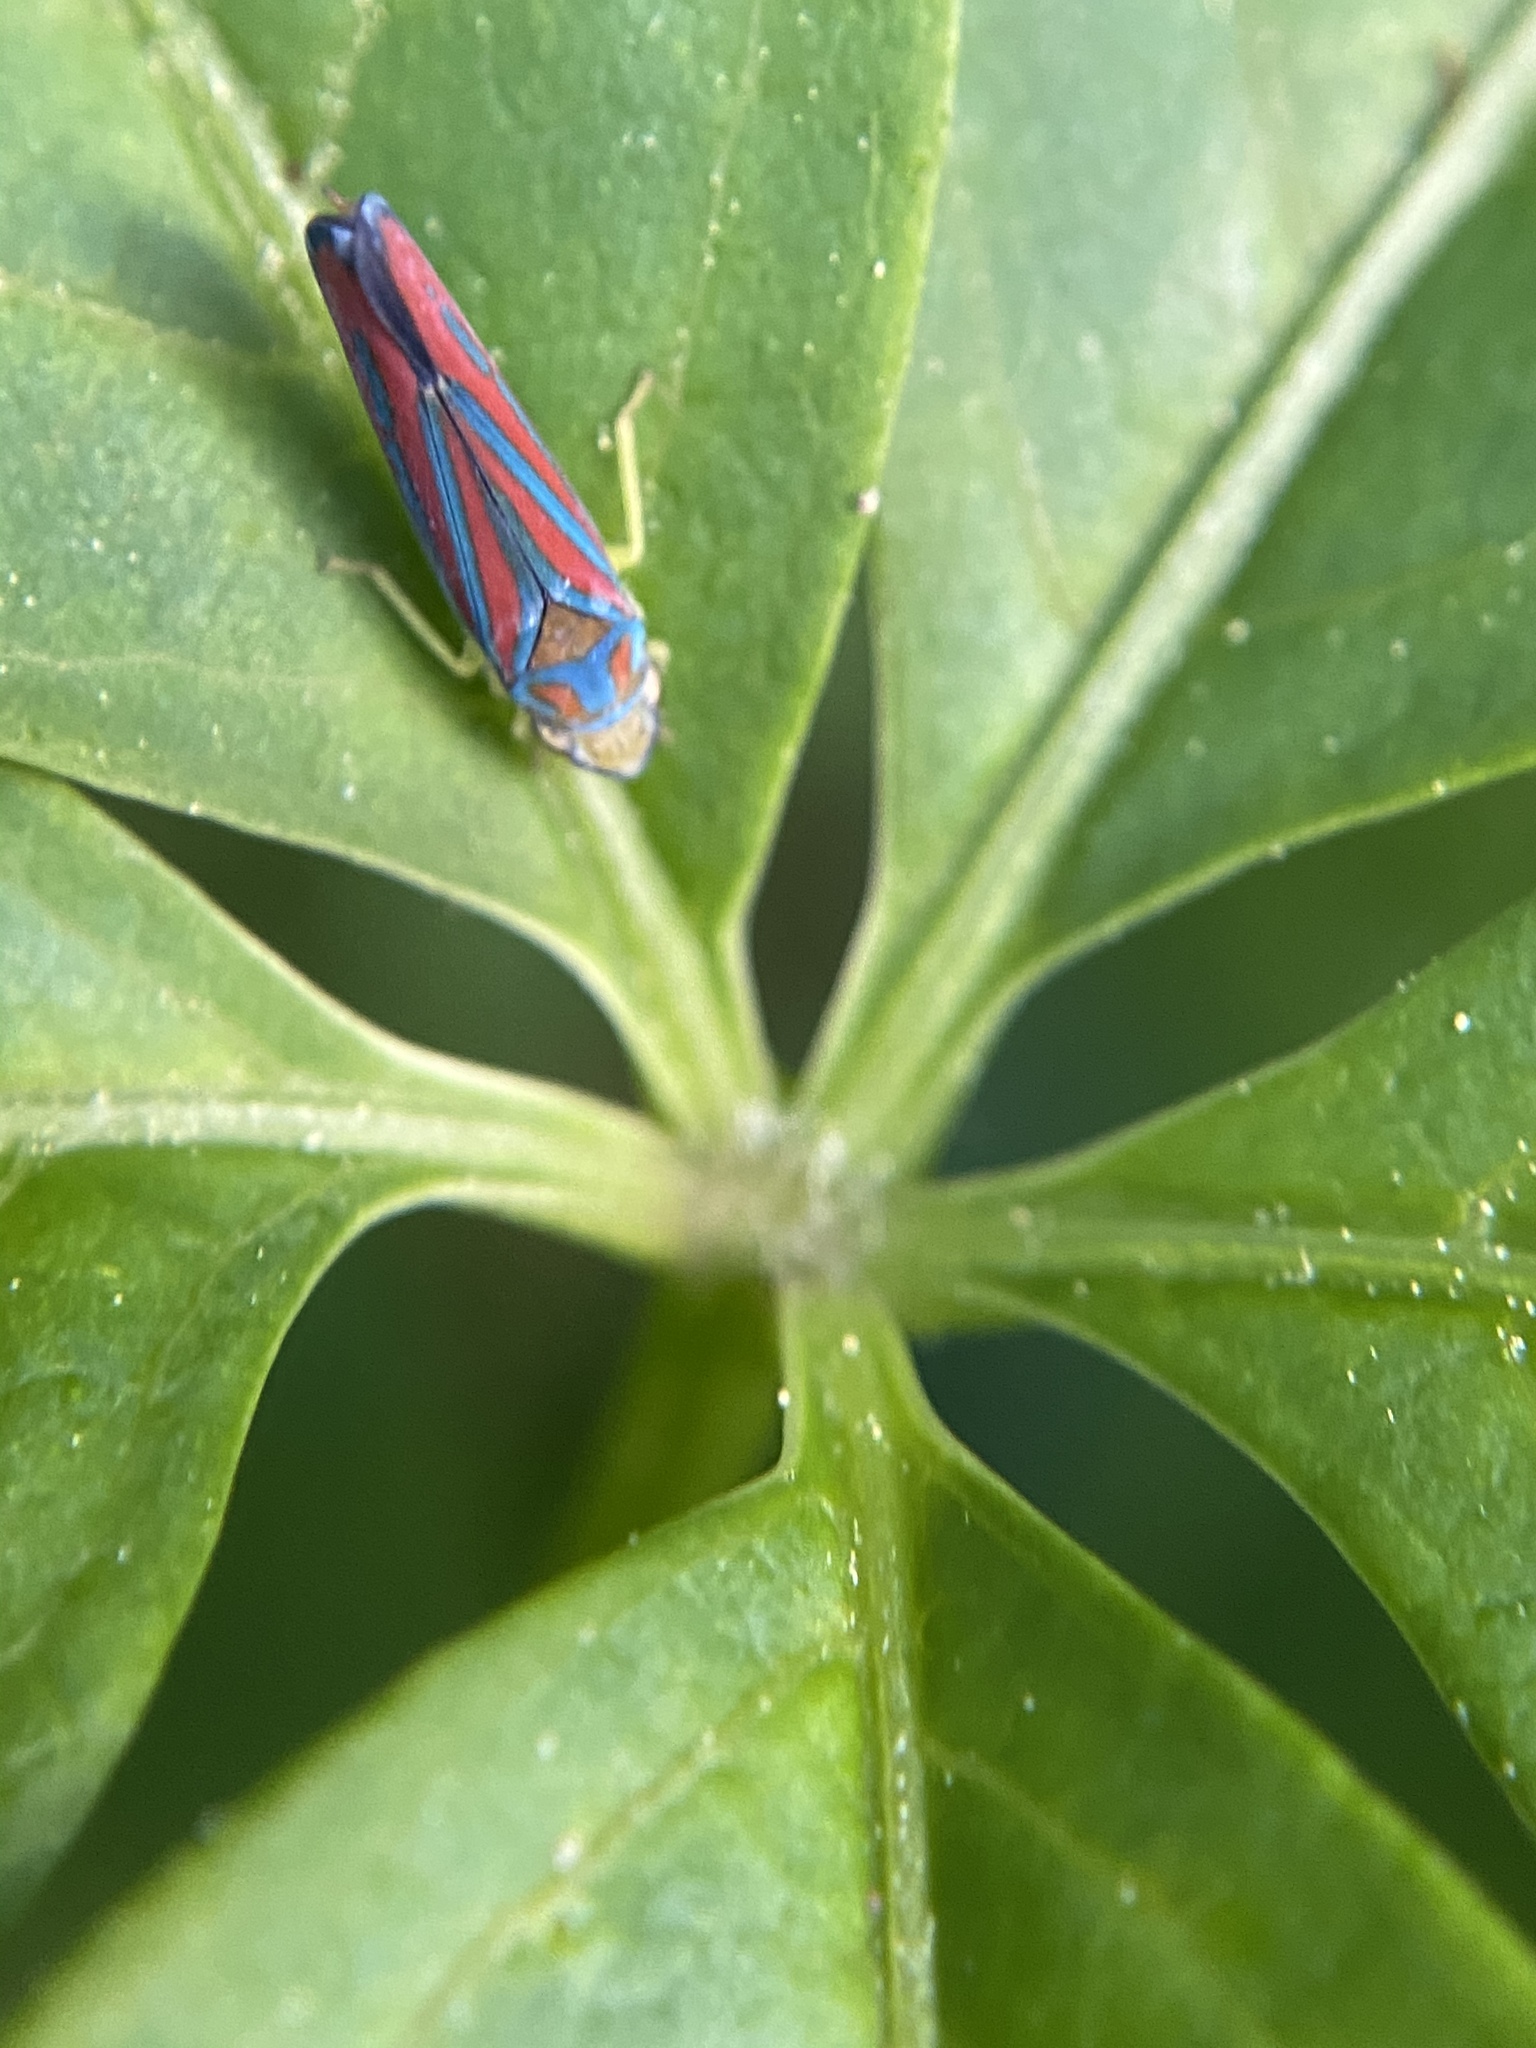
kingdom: Animalia
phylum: Arthropoda
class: Insecta
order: Hemiptera
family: Cicadellidae
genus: Graphocephala
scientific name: Graphocephala coccinea
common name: Candy-striped leafhopper
